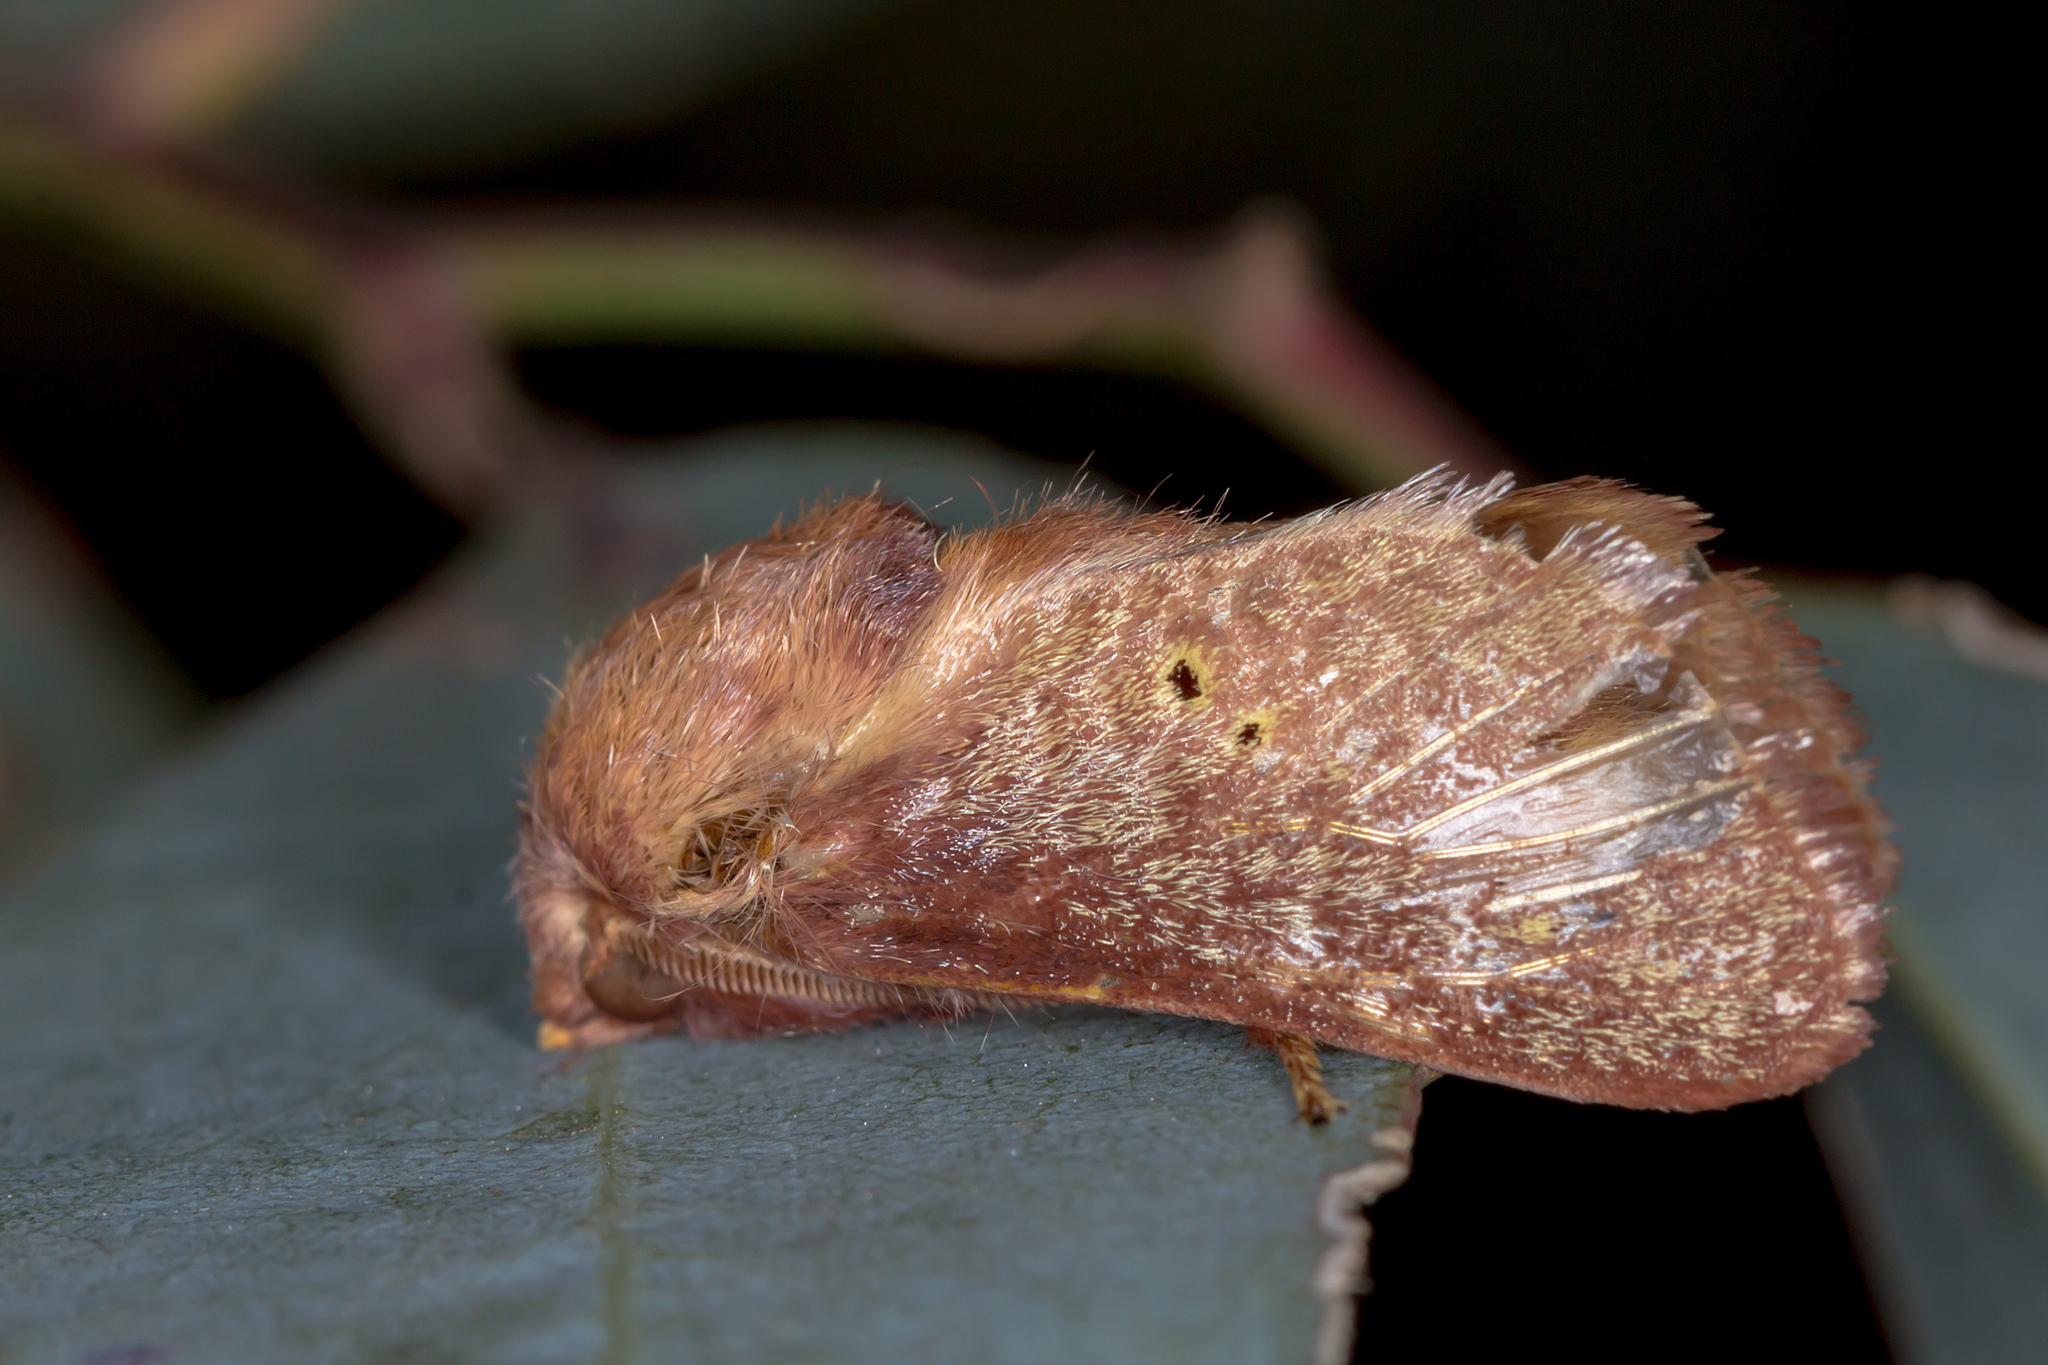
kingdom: Animalia
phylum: Arthropoda
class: Insecta
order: Lepidoptera
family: Limacodidae
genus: Doratifera
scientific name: Doratifera quadriguttata
